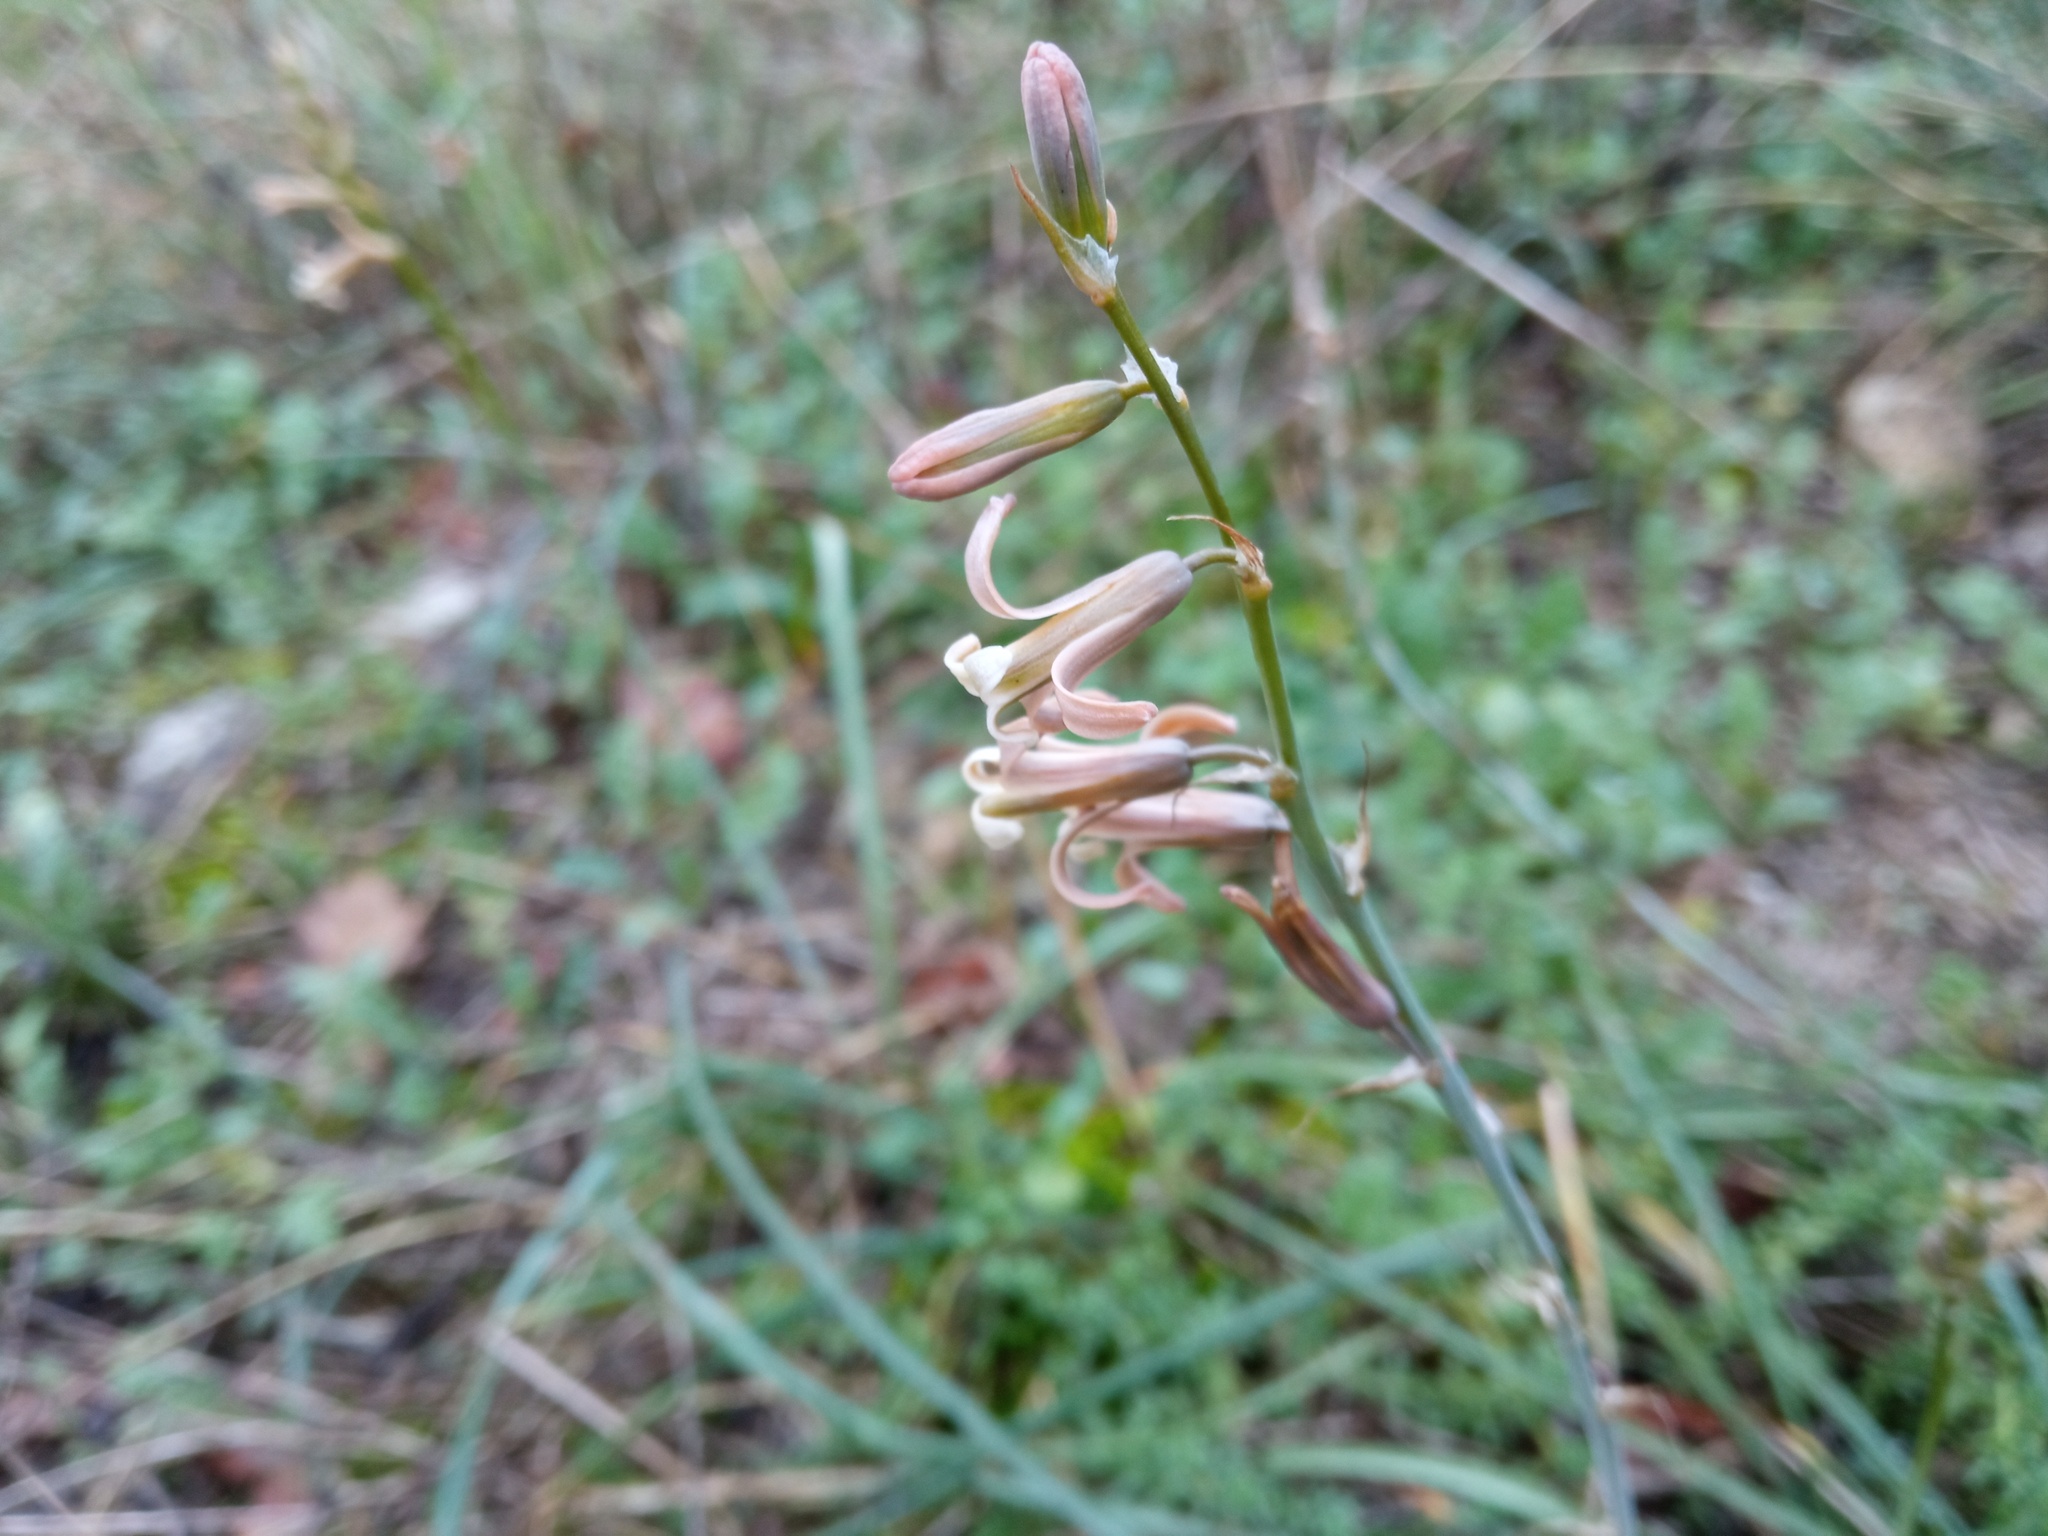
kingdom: Plantae
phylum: Tracheophyta
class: Liliopsida
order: Asparagales
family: Asparagaceae
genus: Dipcadi
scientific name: Dipcadi serotinum
